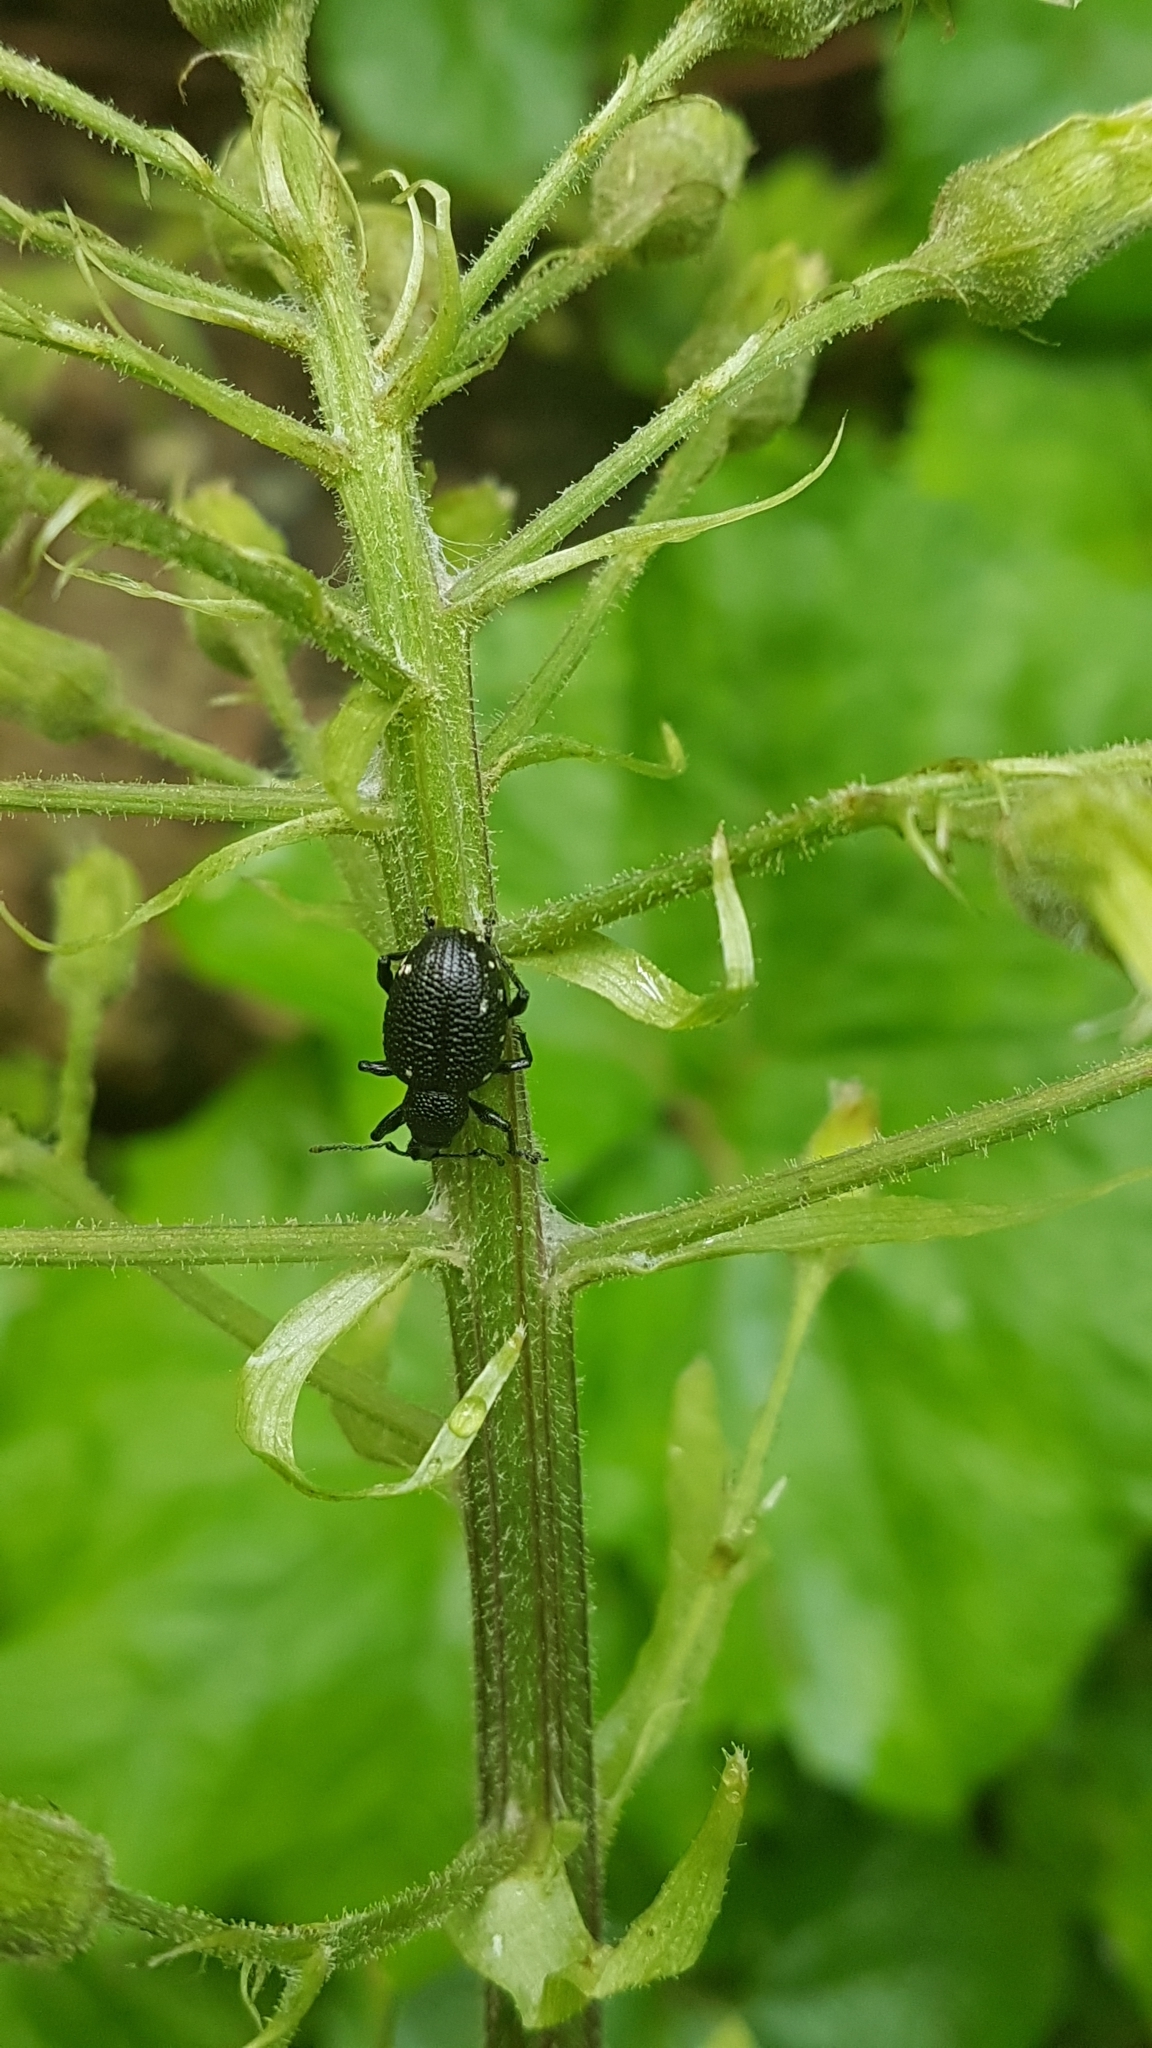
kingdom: Animalia
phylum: Arthropoda
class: Insecta
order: Coleoptera
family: Curculionidae
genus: Otiorhynchus
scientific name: Otiorhynchus gemmatus
